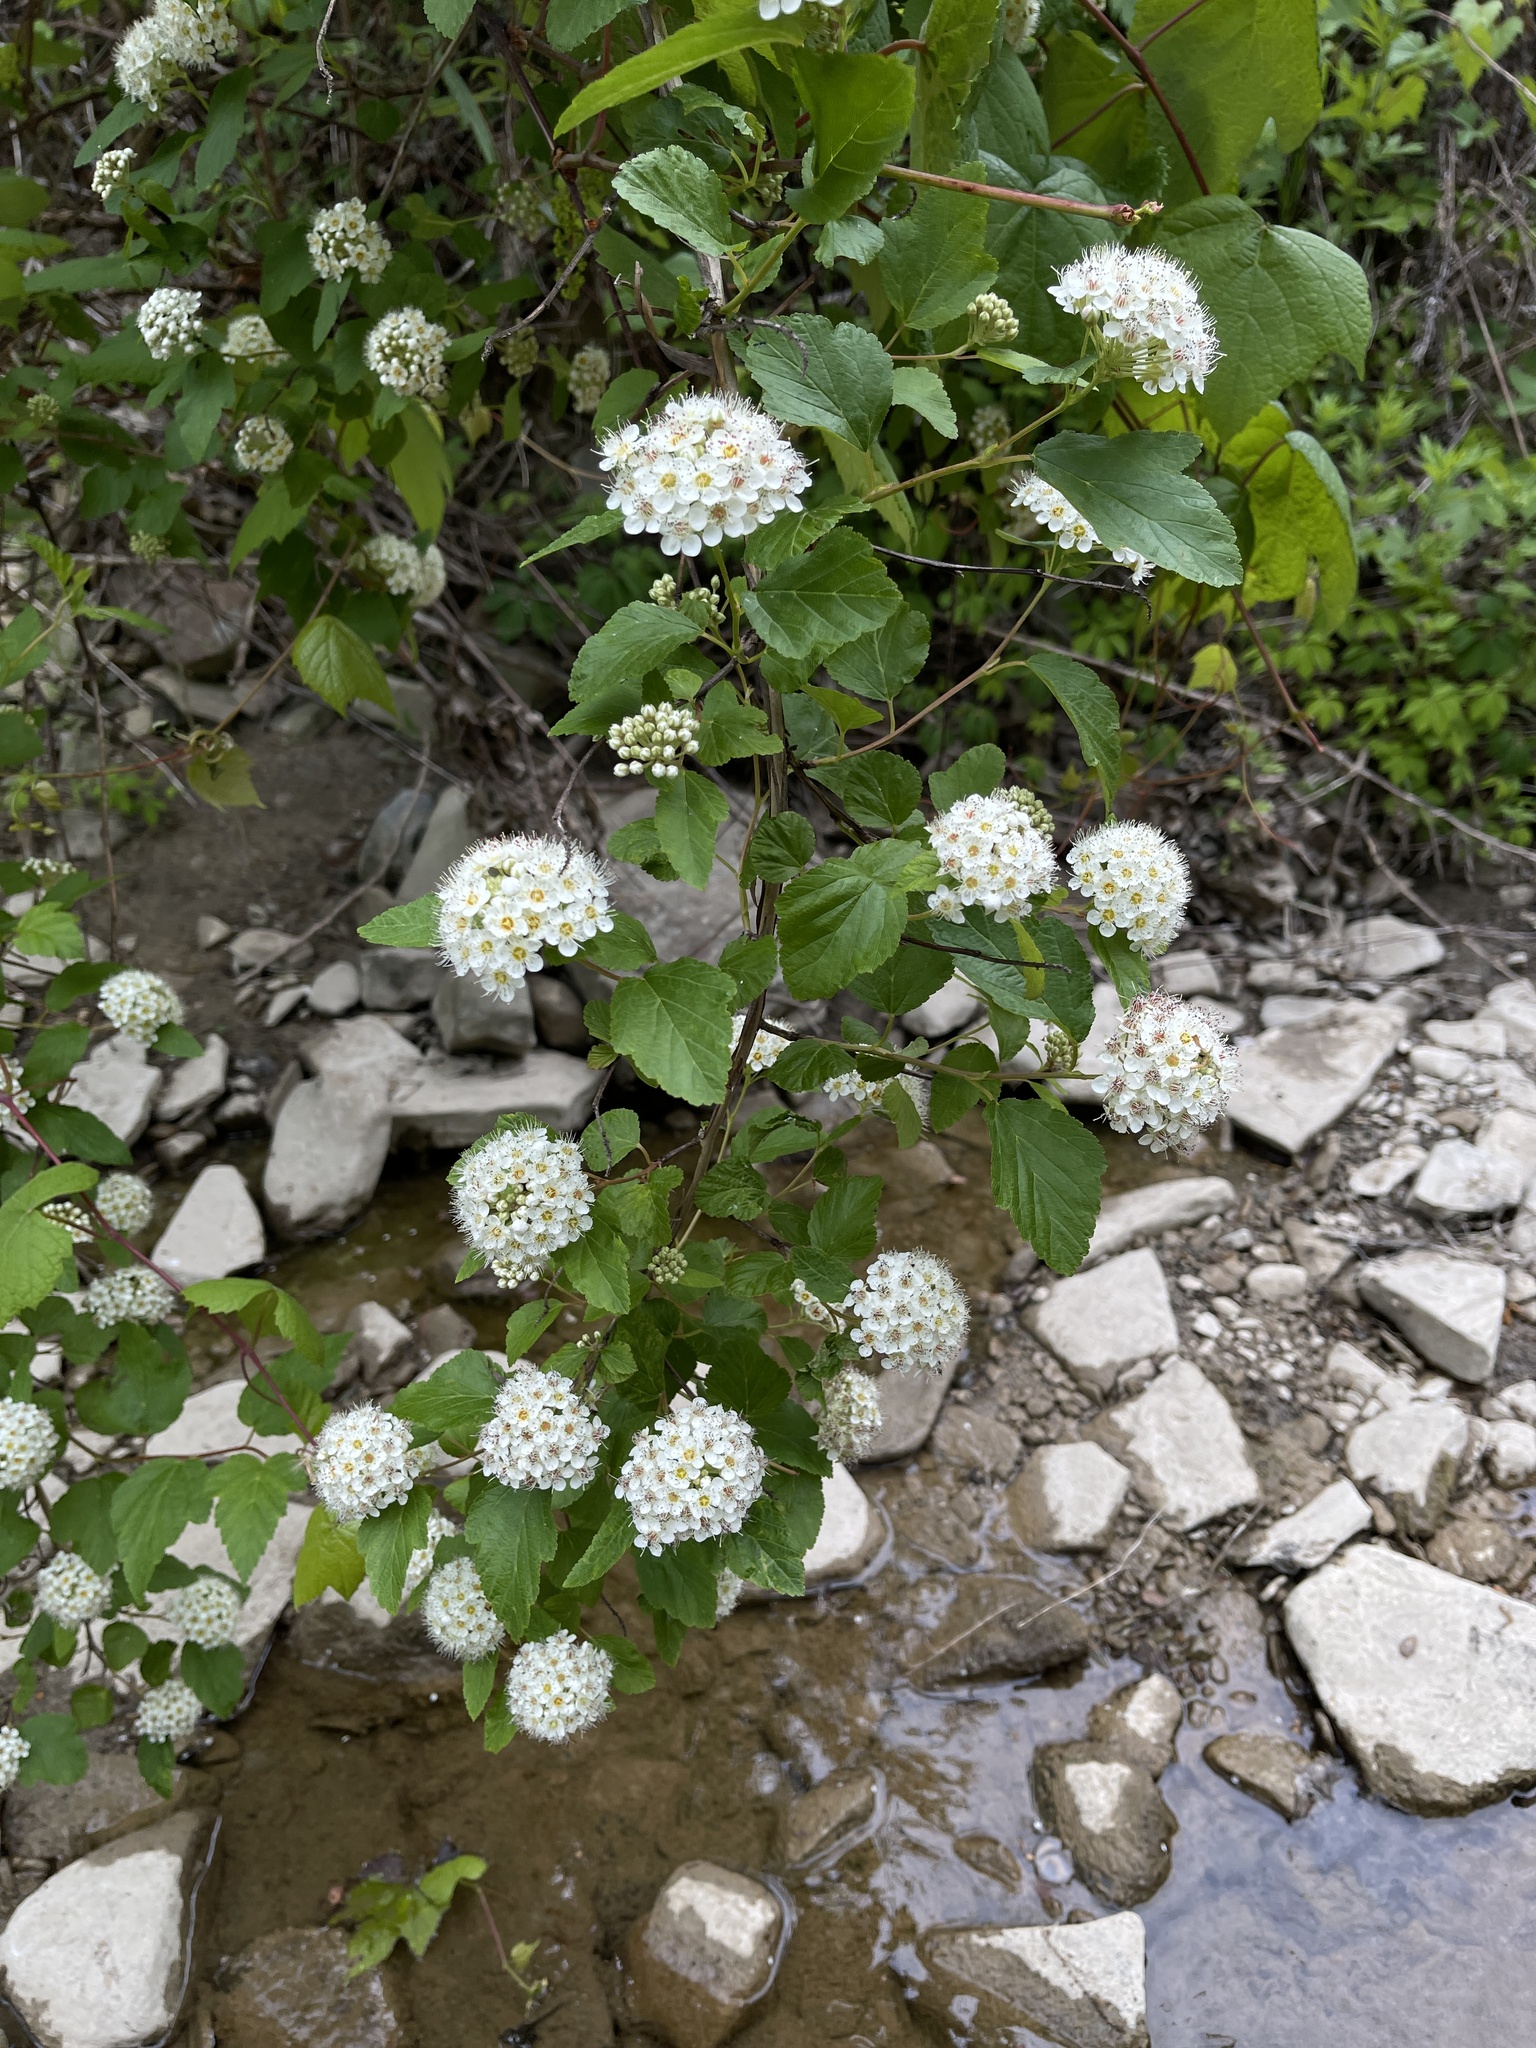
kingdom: Plantae
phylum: Tracheophyta
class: Magnoliopsida
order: Rosales
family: Rosaceae
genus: Physocarpus
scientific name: Physocarpus opulifolius
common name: Ninebark
